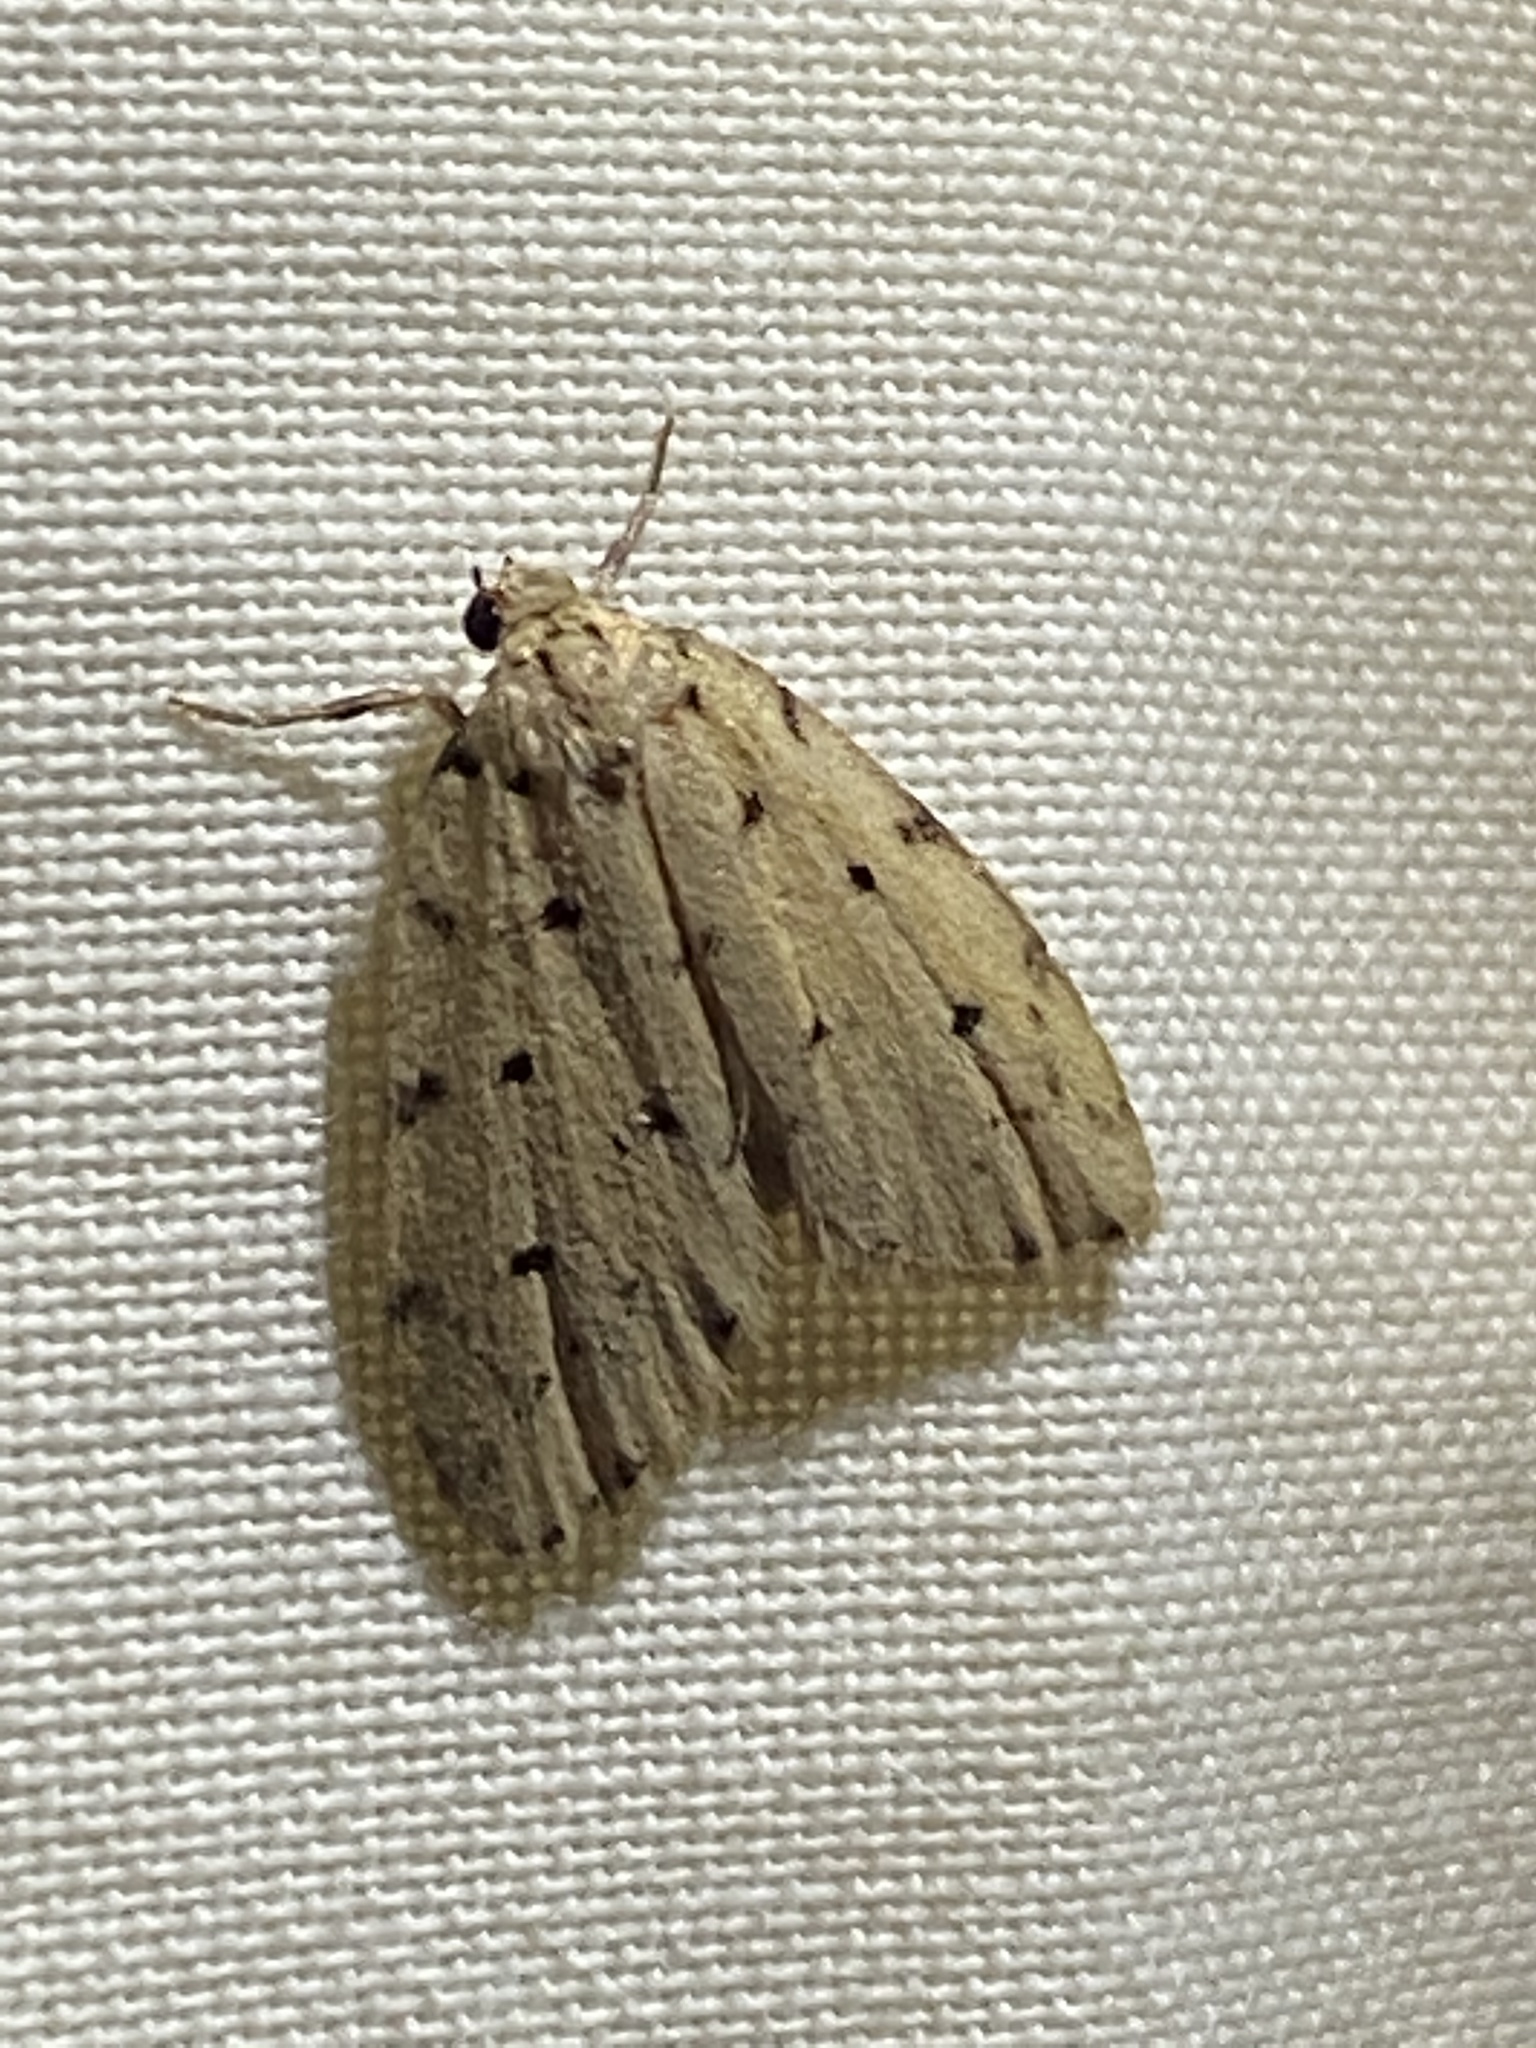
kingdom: Animalia
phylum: Arthropoda
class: Insecta
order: Lepidoptera
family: Erebidae
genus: Siccia
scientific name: Siccia caffra
